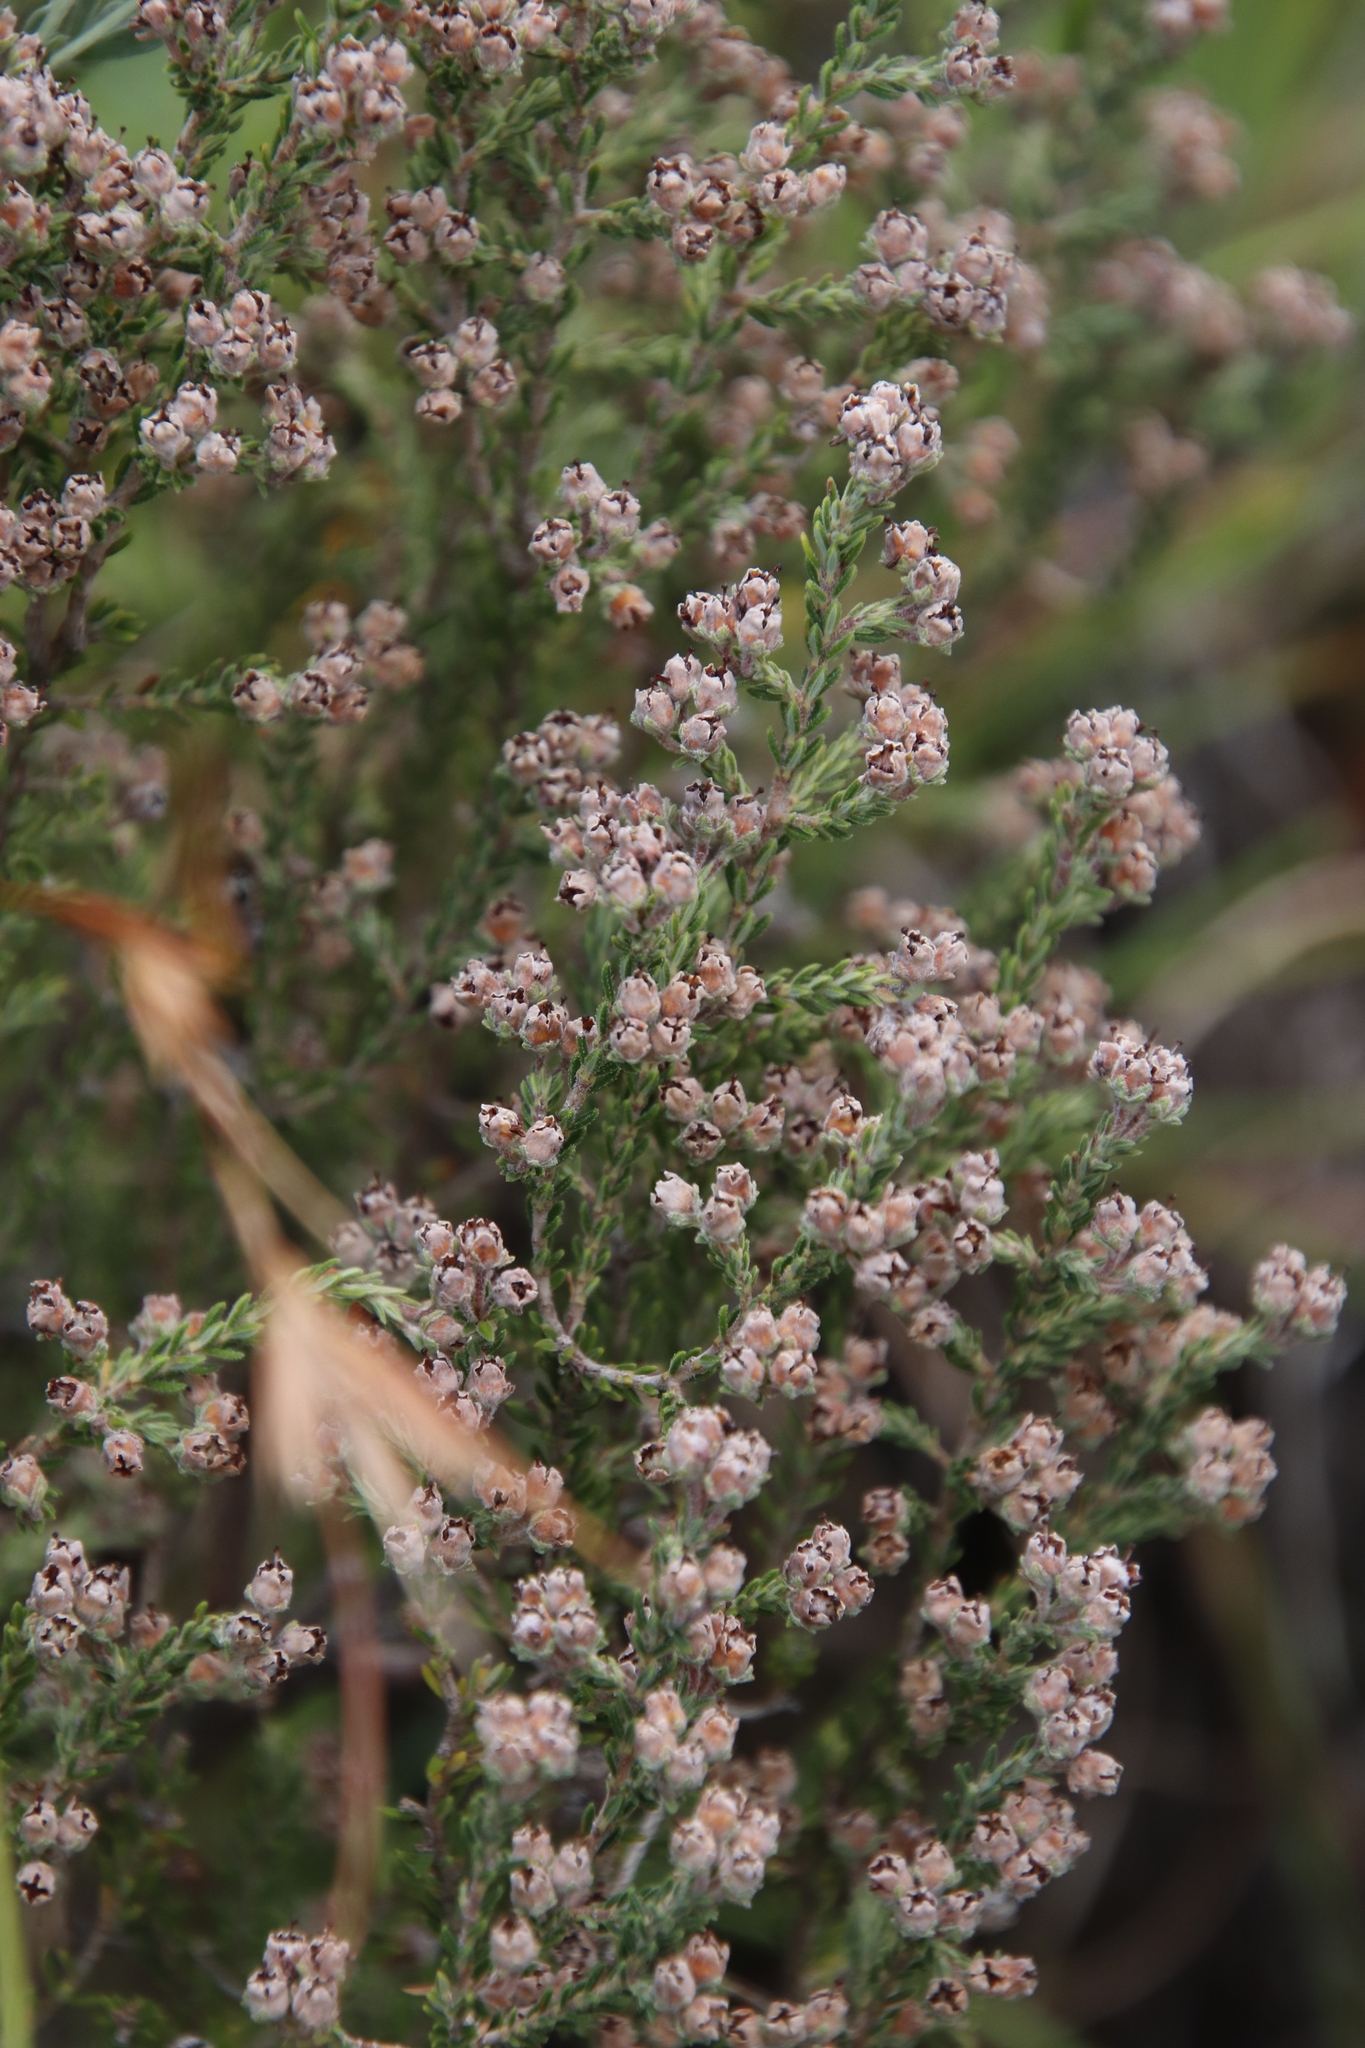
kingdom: Plantae
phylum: Tracheophyta
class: Magnoliopsida
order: Ericales
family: Ericaceae
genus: Erica
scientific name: Erica woodii
